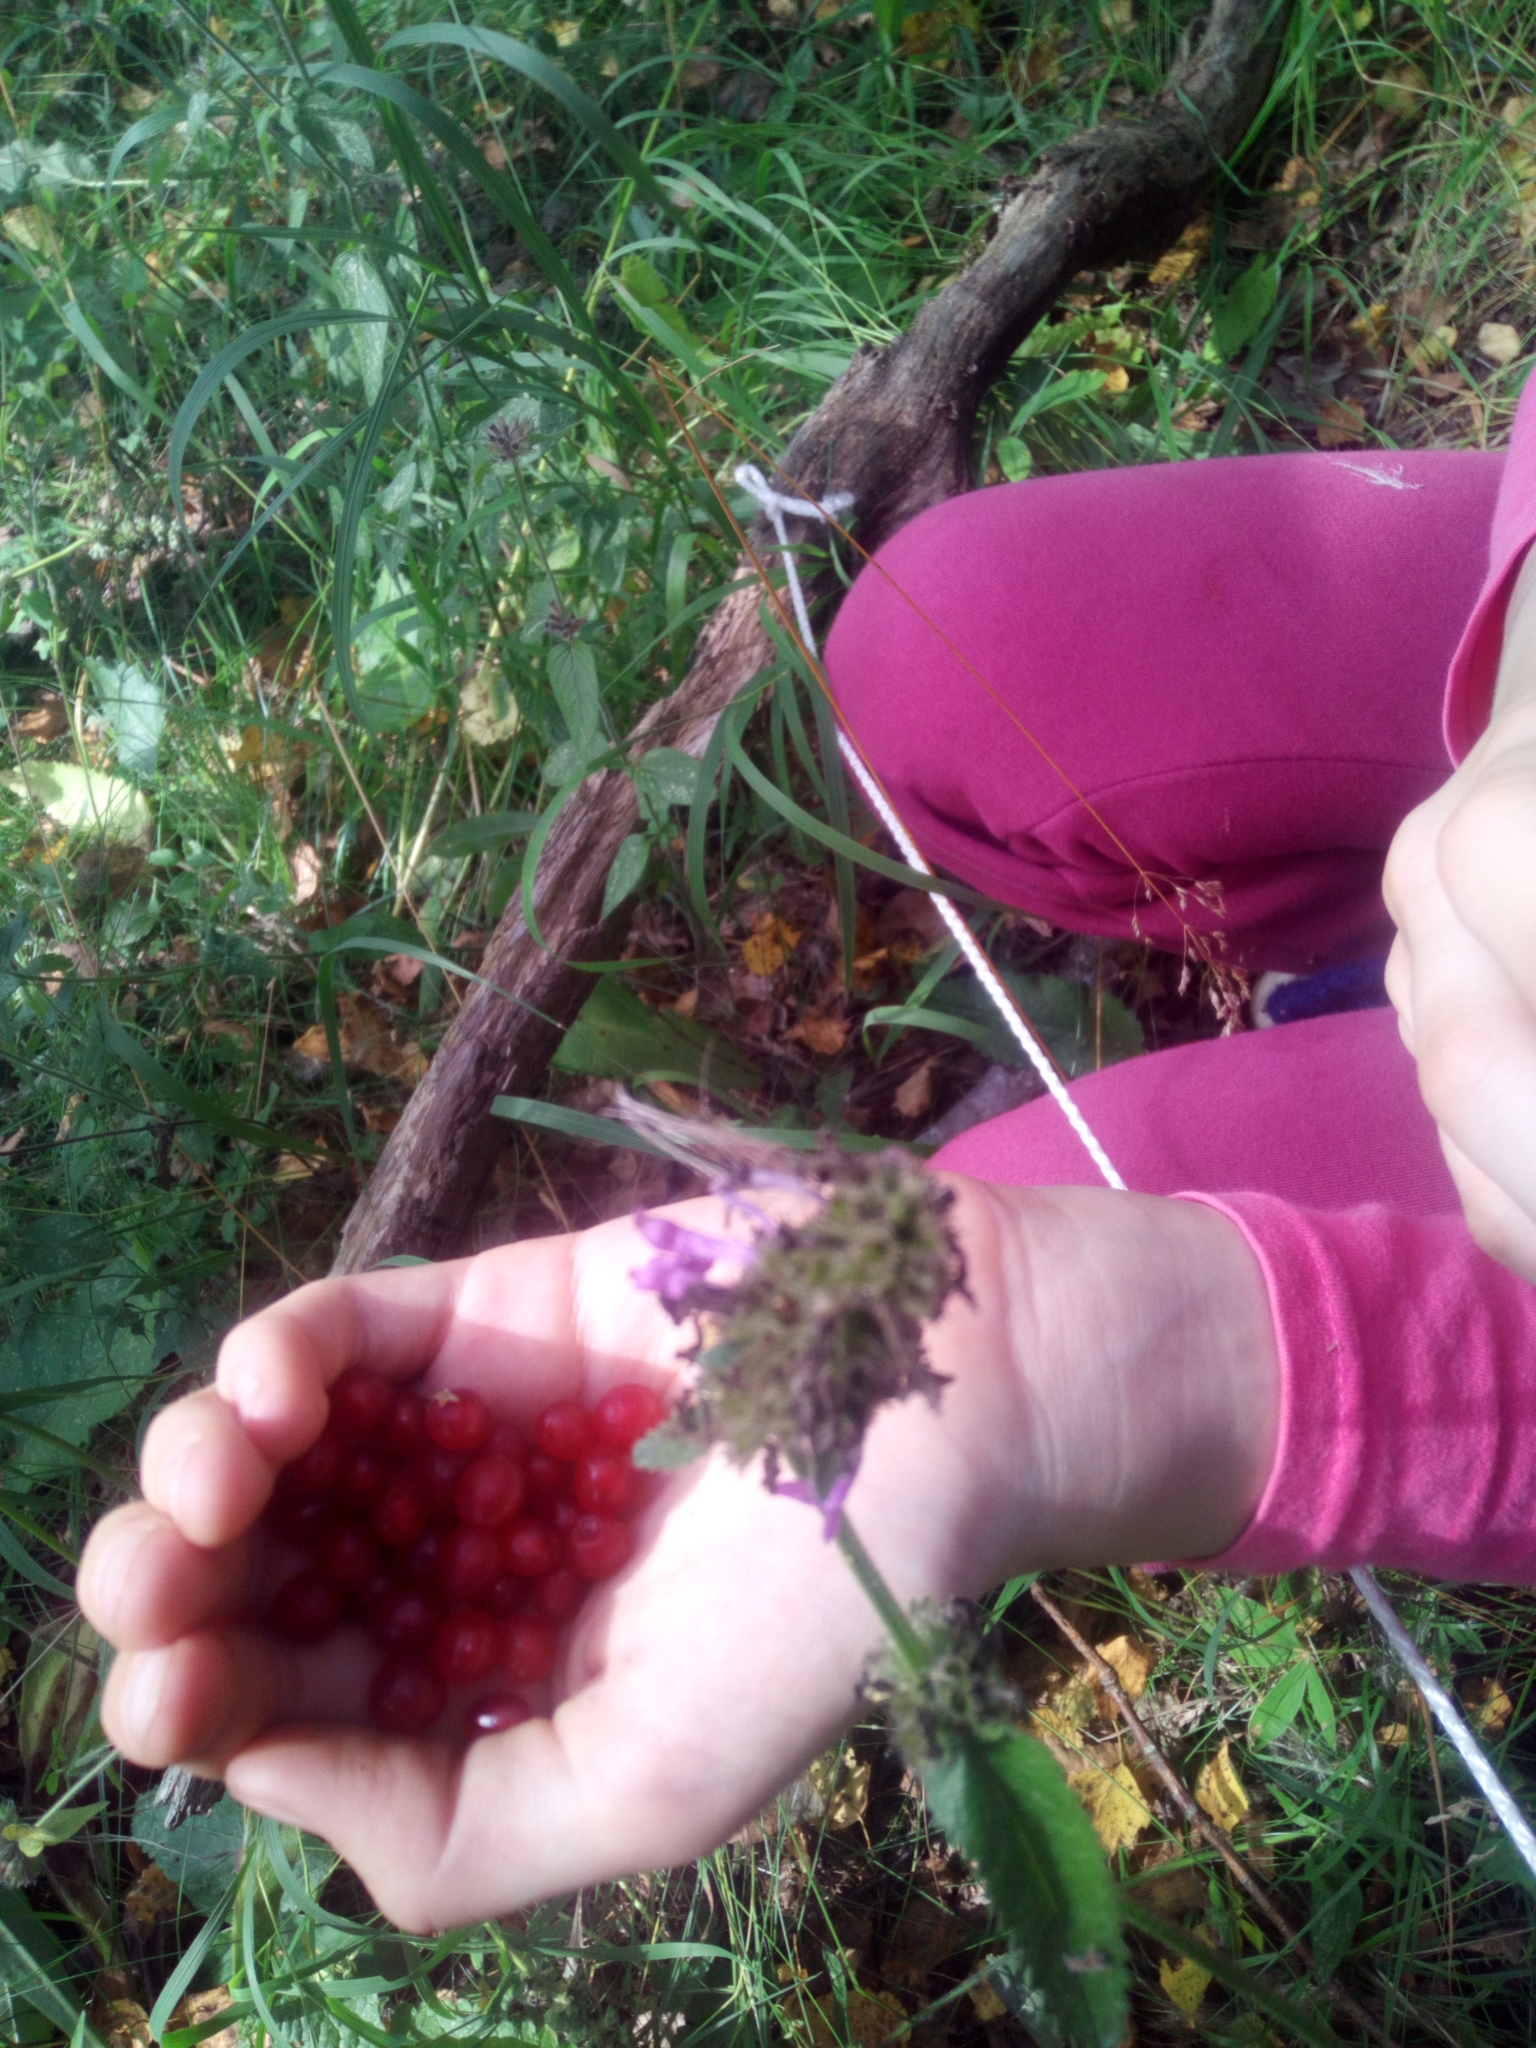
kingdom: Plantae
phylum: Tracheophyta
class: Magnoliopsida
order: Lamiales
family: Lamiaceae
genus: Betonica
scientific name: Betonica officinalis
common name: Bishop's-wort
